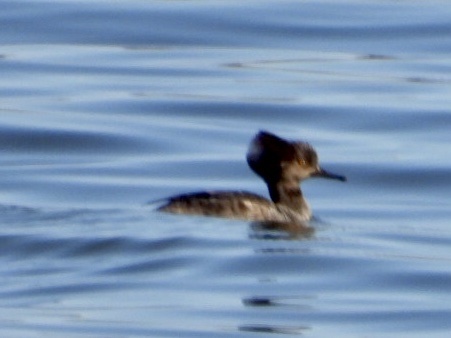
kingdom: Animalia
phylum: Chordata
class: Aves
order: Anseriformes
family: Anatidae
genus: Lophodytes
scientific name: Lophodytes cucullatus
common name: Hooded merganser
